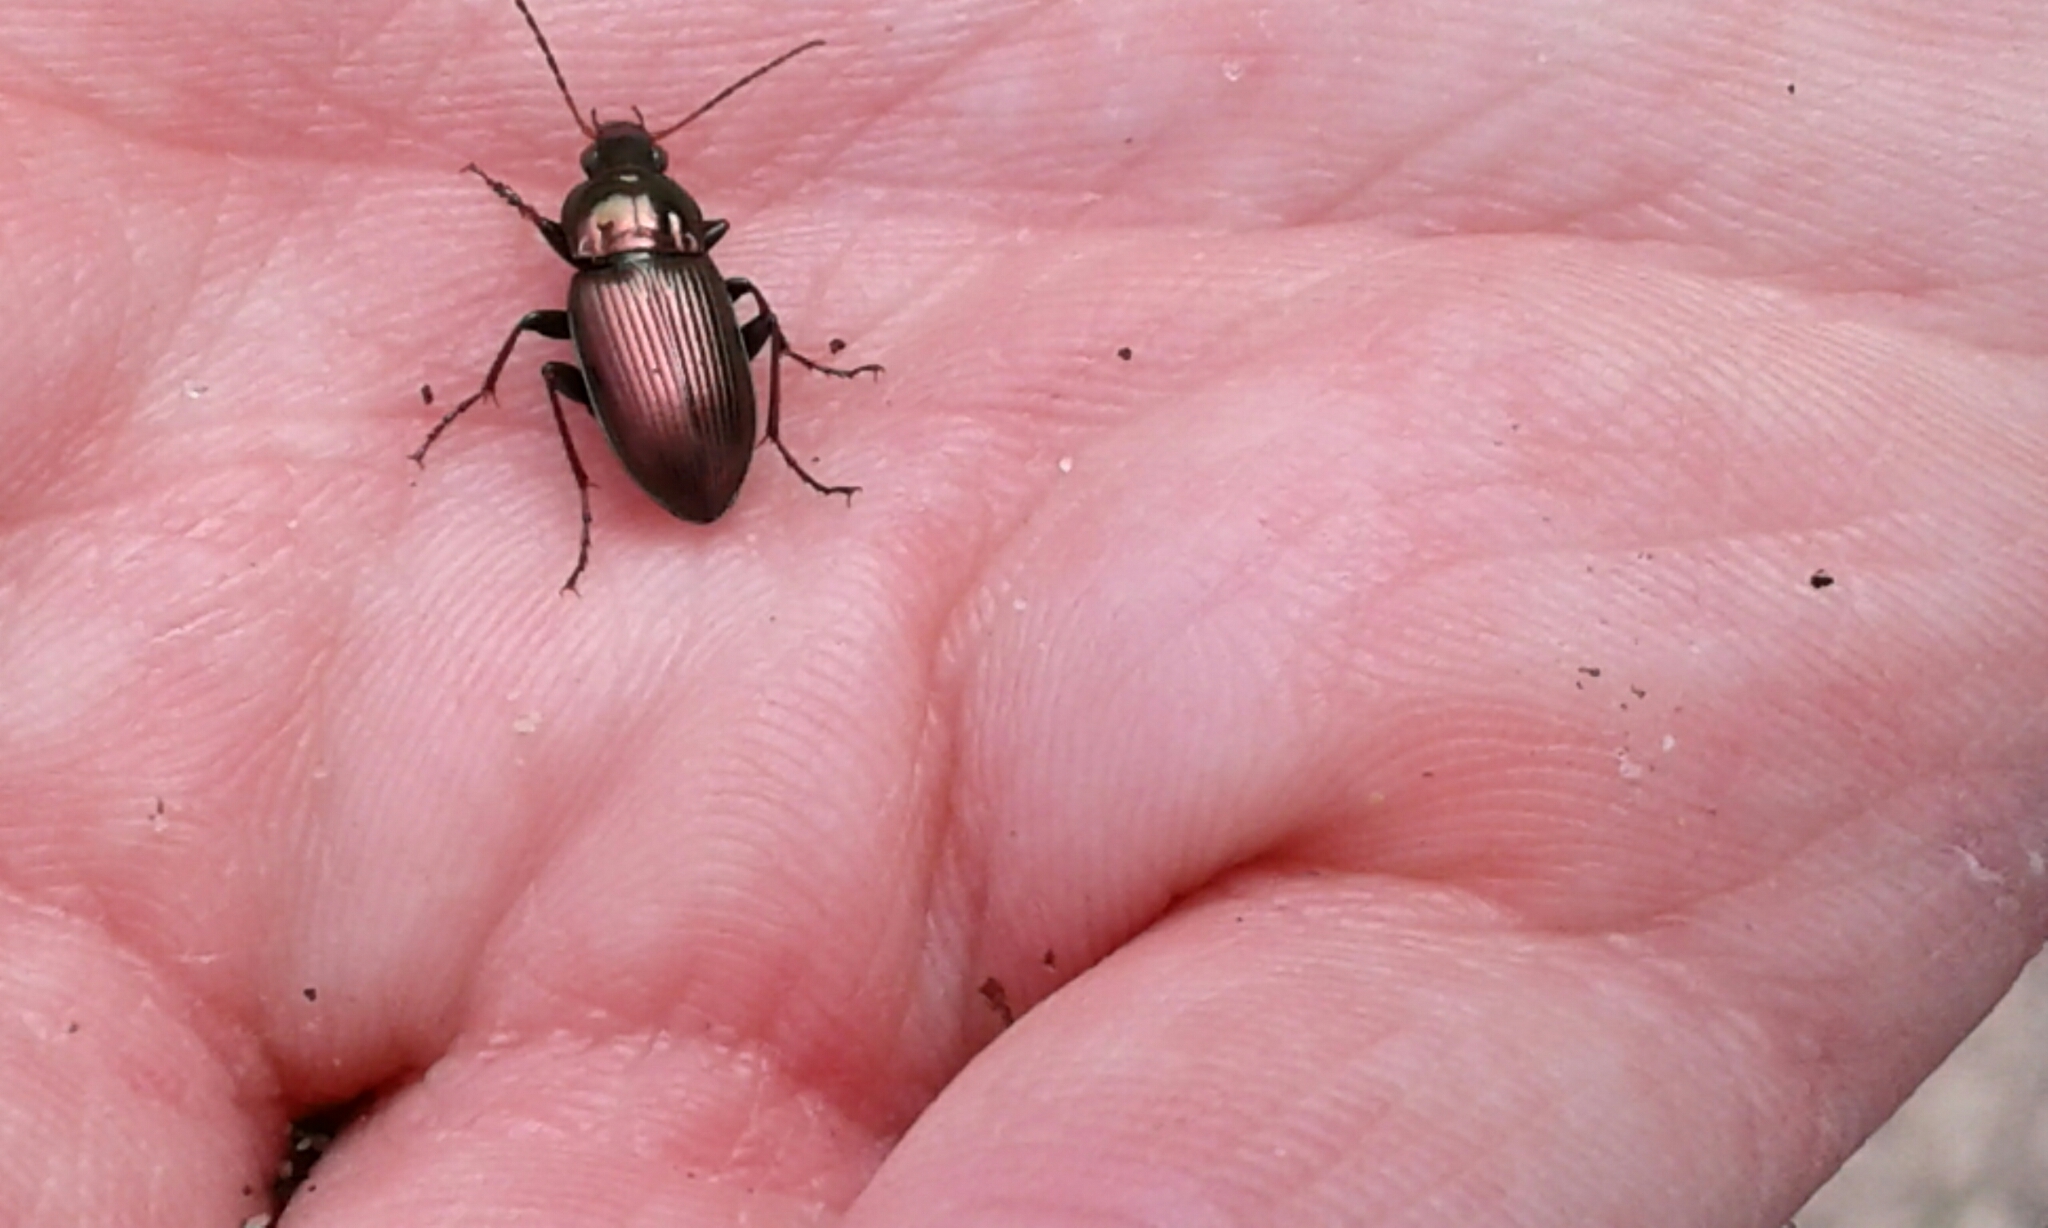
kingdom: Animalia
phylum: Arthropoda
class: Insecta
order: Coleoptera
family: Carabidae
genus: Poecilus
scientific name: Poecilus chalcites
